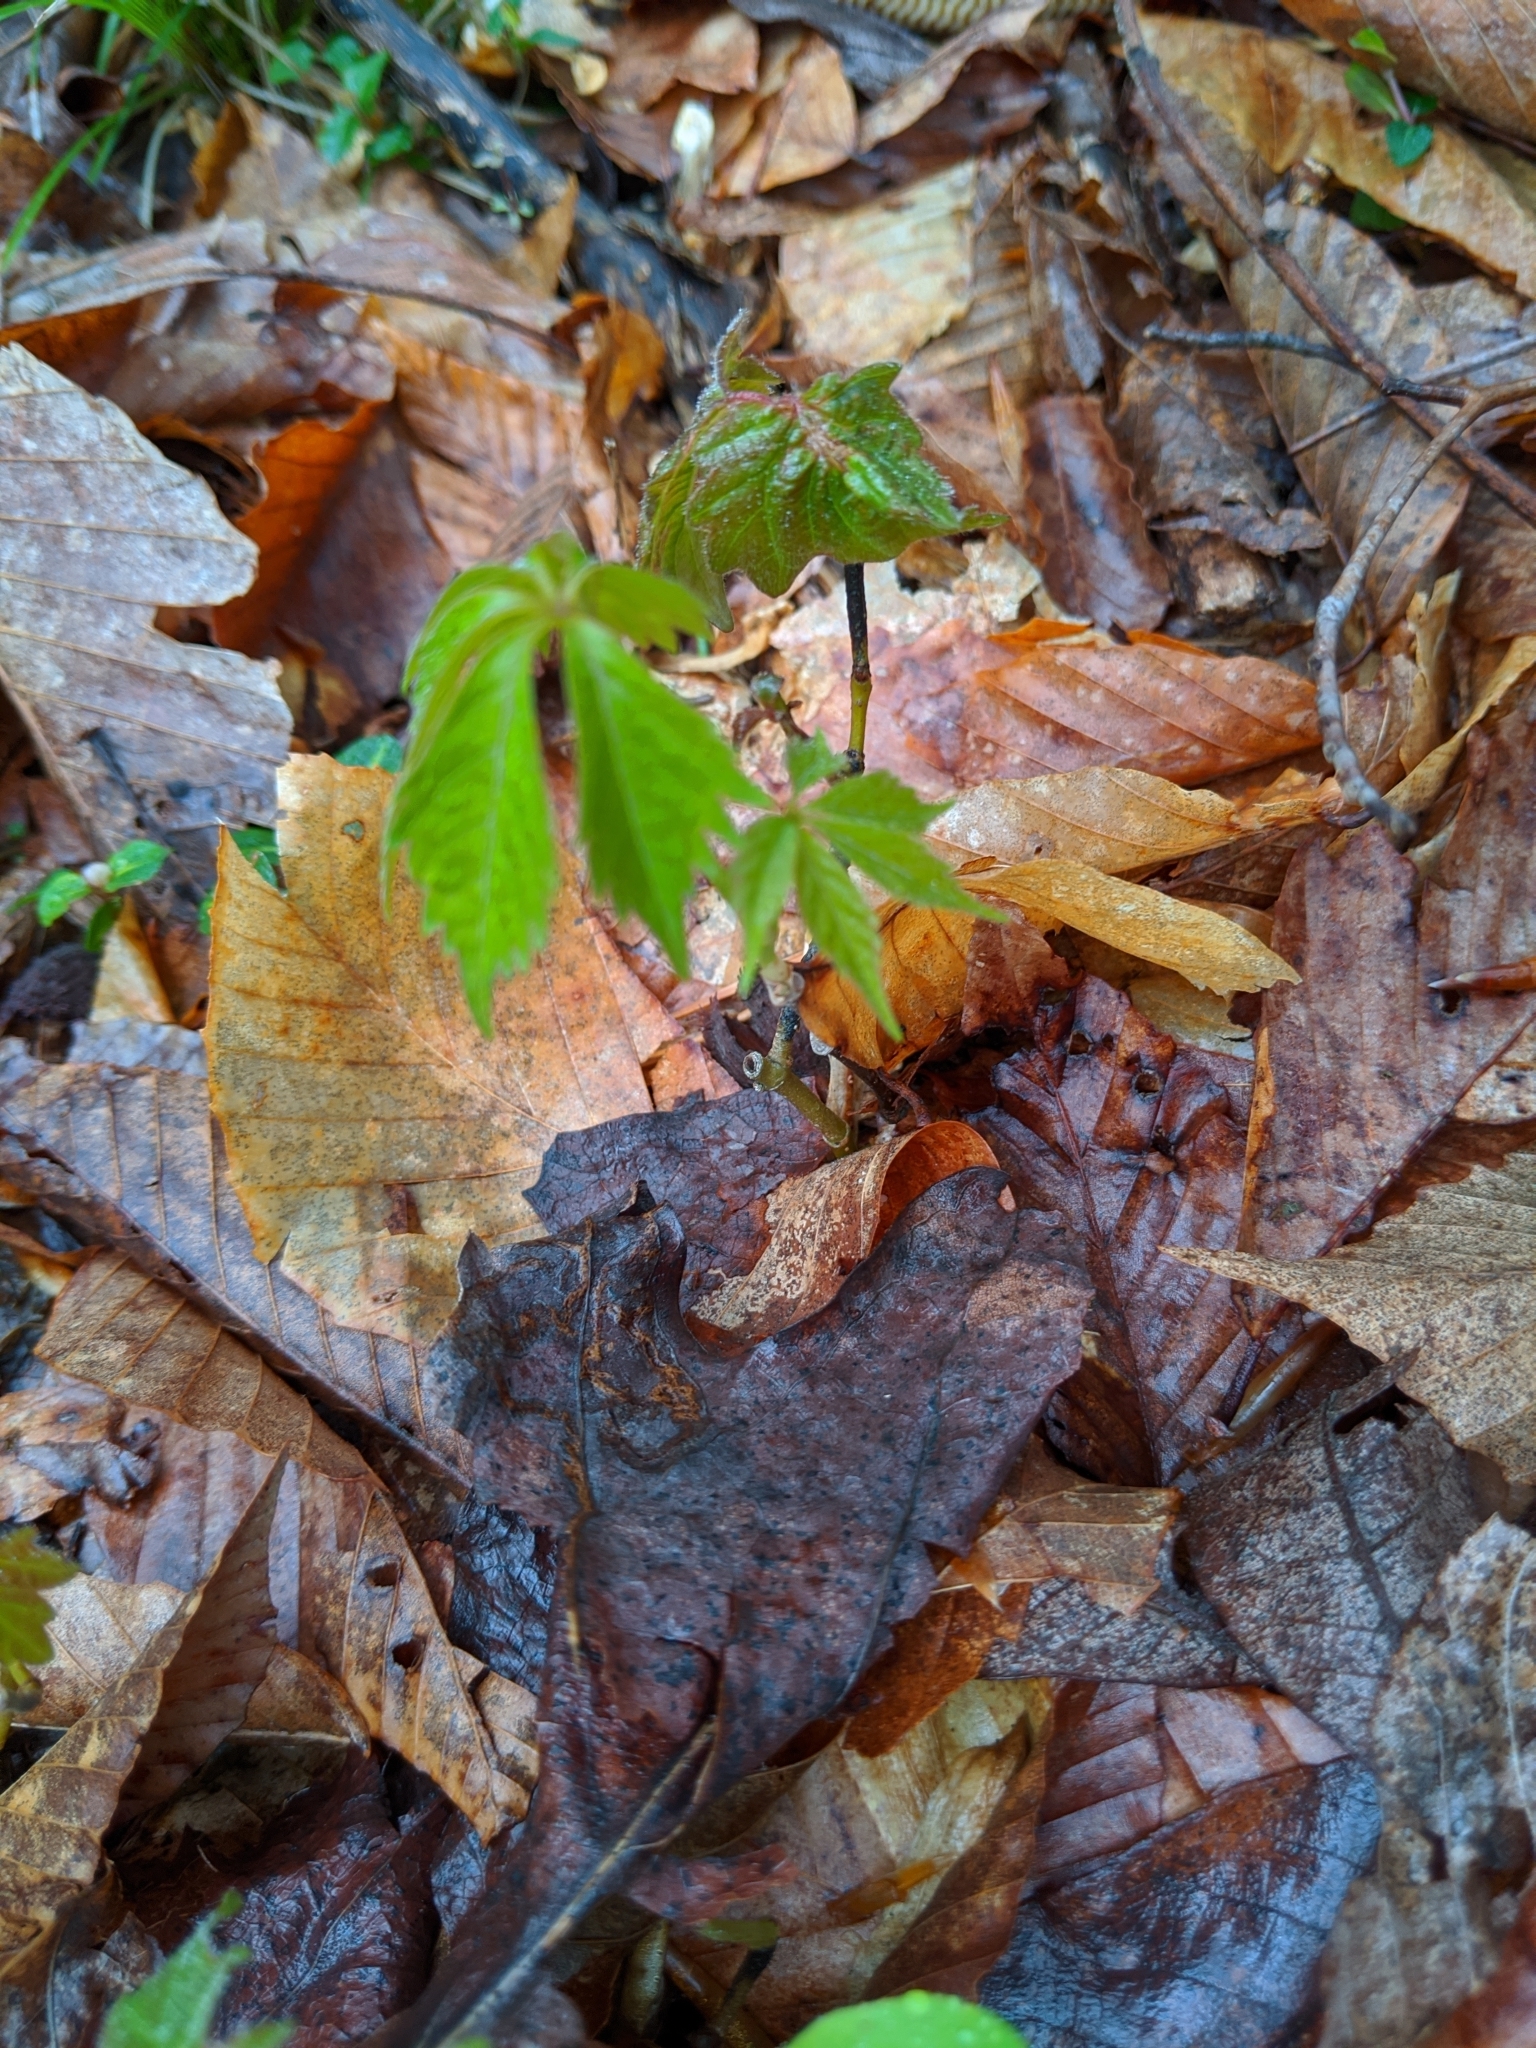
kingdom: Plantae
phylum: Tracheophyta
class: Magnoliopsida
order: Vitales
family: Vitaceae
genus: Parthenocissus
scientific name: Parthenocissus quinquefolia
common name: Virginia-creeper
